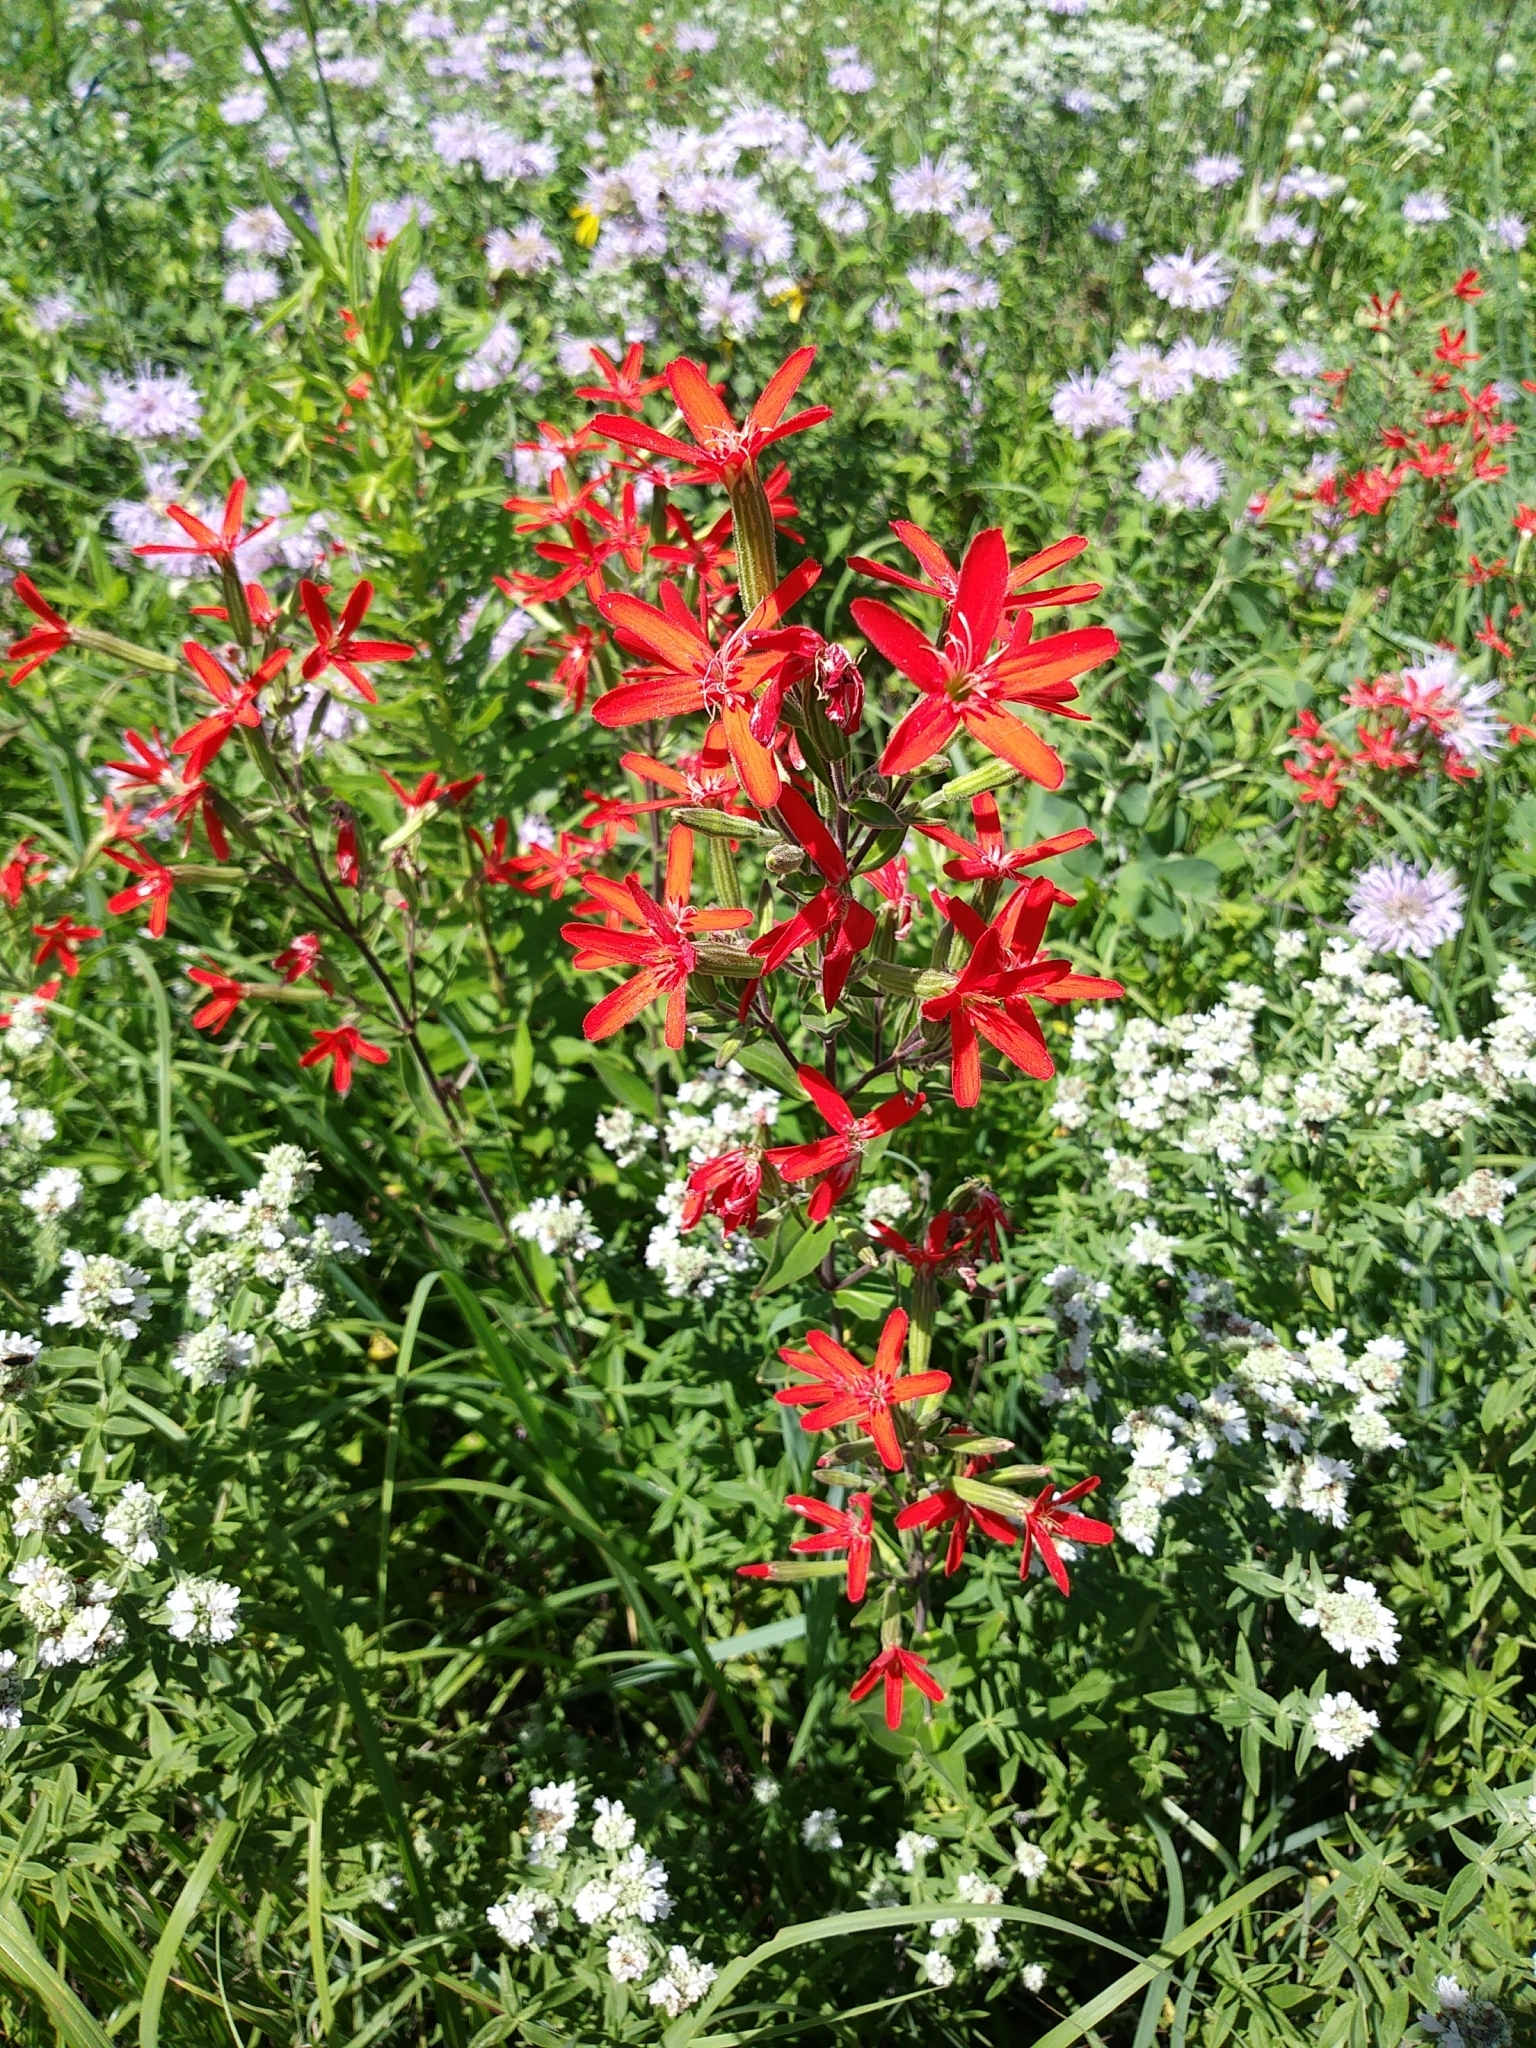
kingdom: Plantae
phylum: Tracheophyta
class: Magnoliopsida
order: Caryophyllales
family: Caryophyllaceae
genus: Silene
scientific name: Silene regia
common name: Royal catchfly
